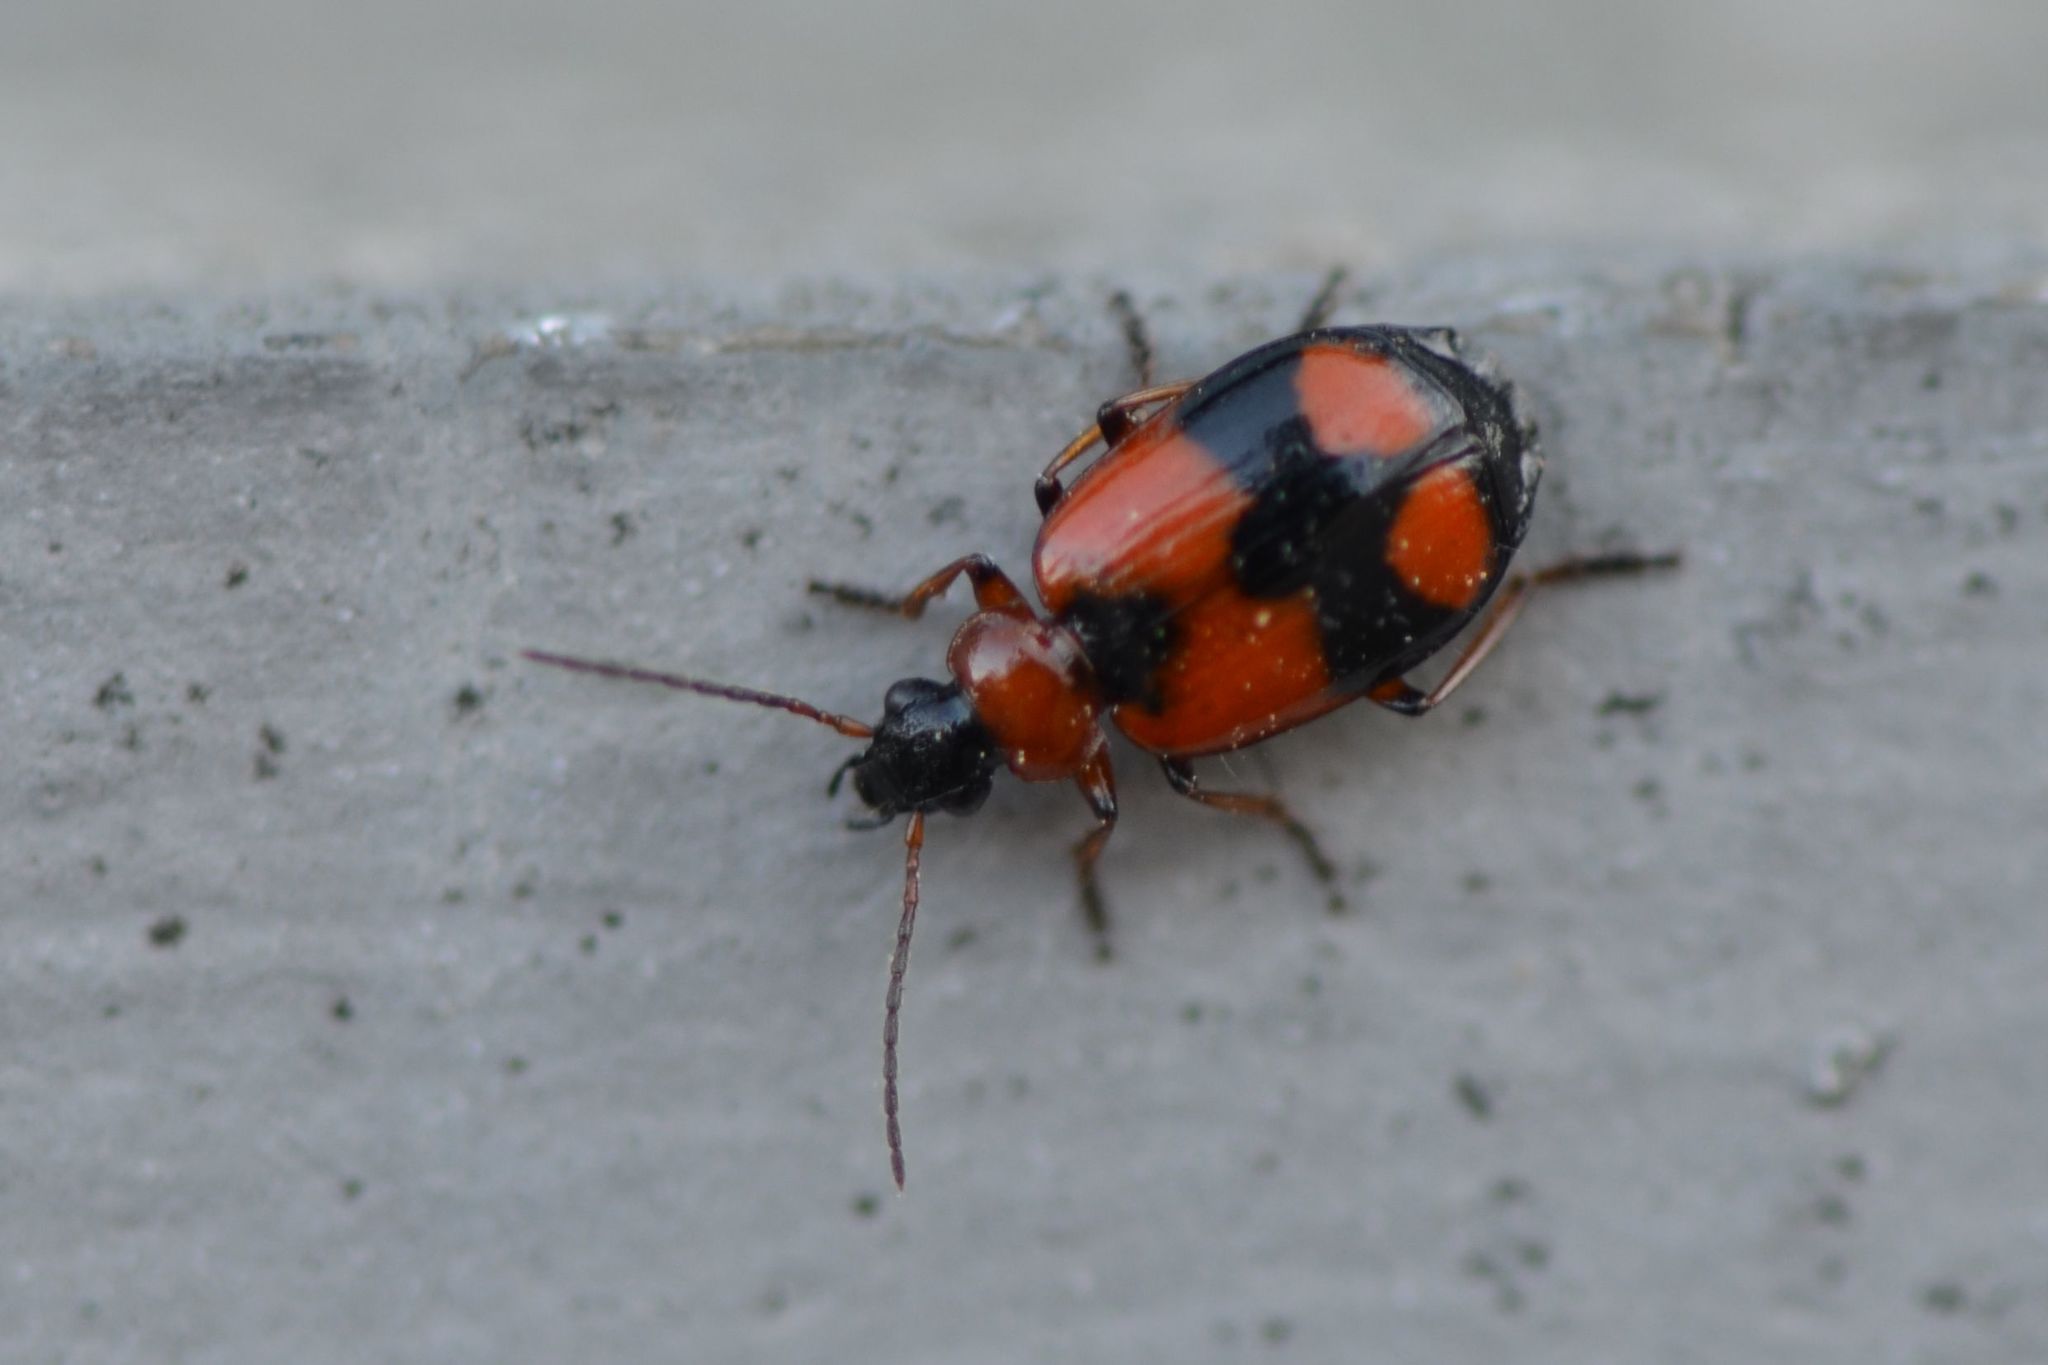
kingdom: Animalia
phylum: Arthropoda
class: Insecta
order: Coleoptera
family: Carabidae
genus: Lebia
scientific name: Lebia cruxminor
